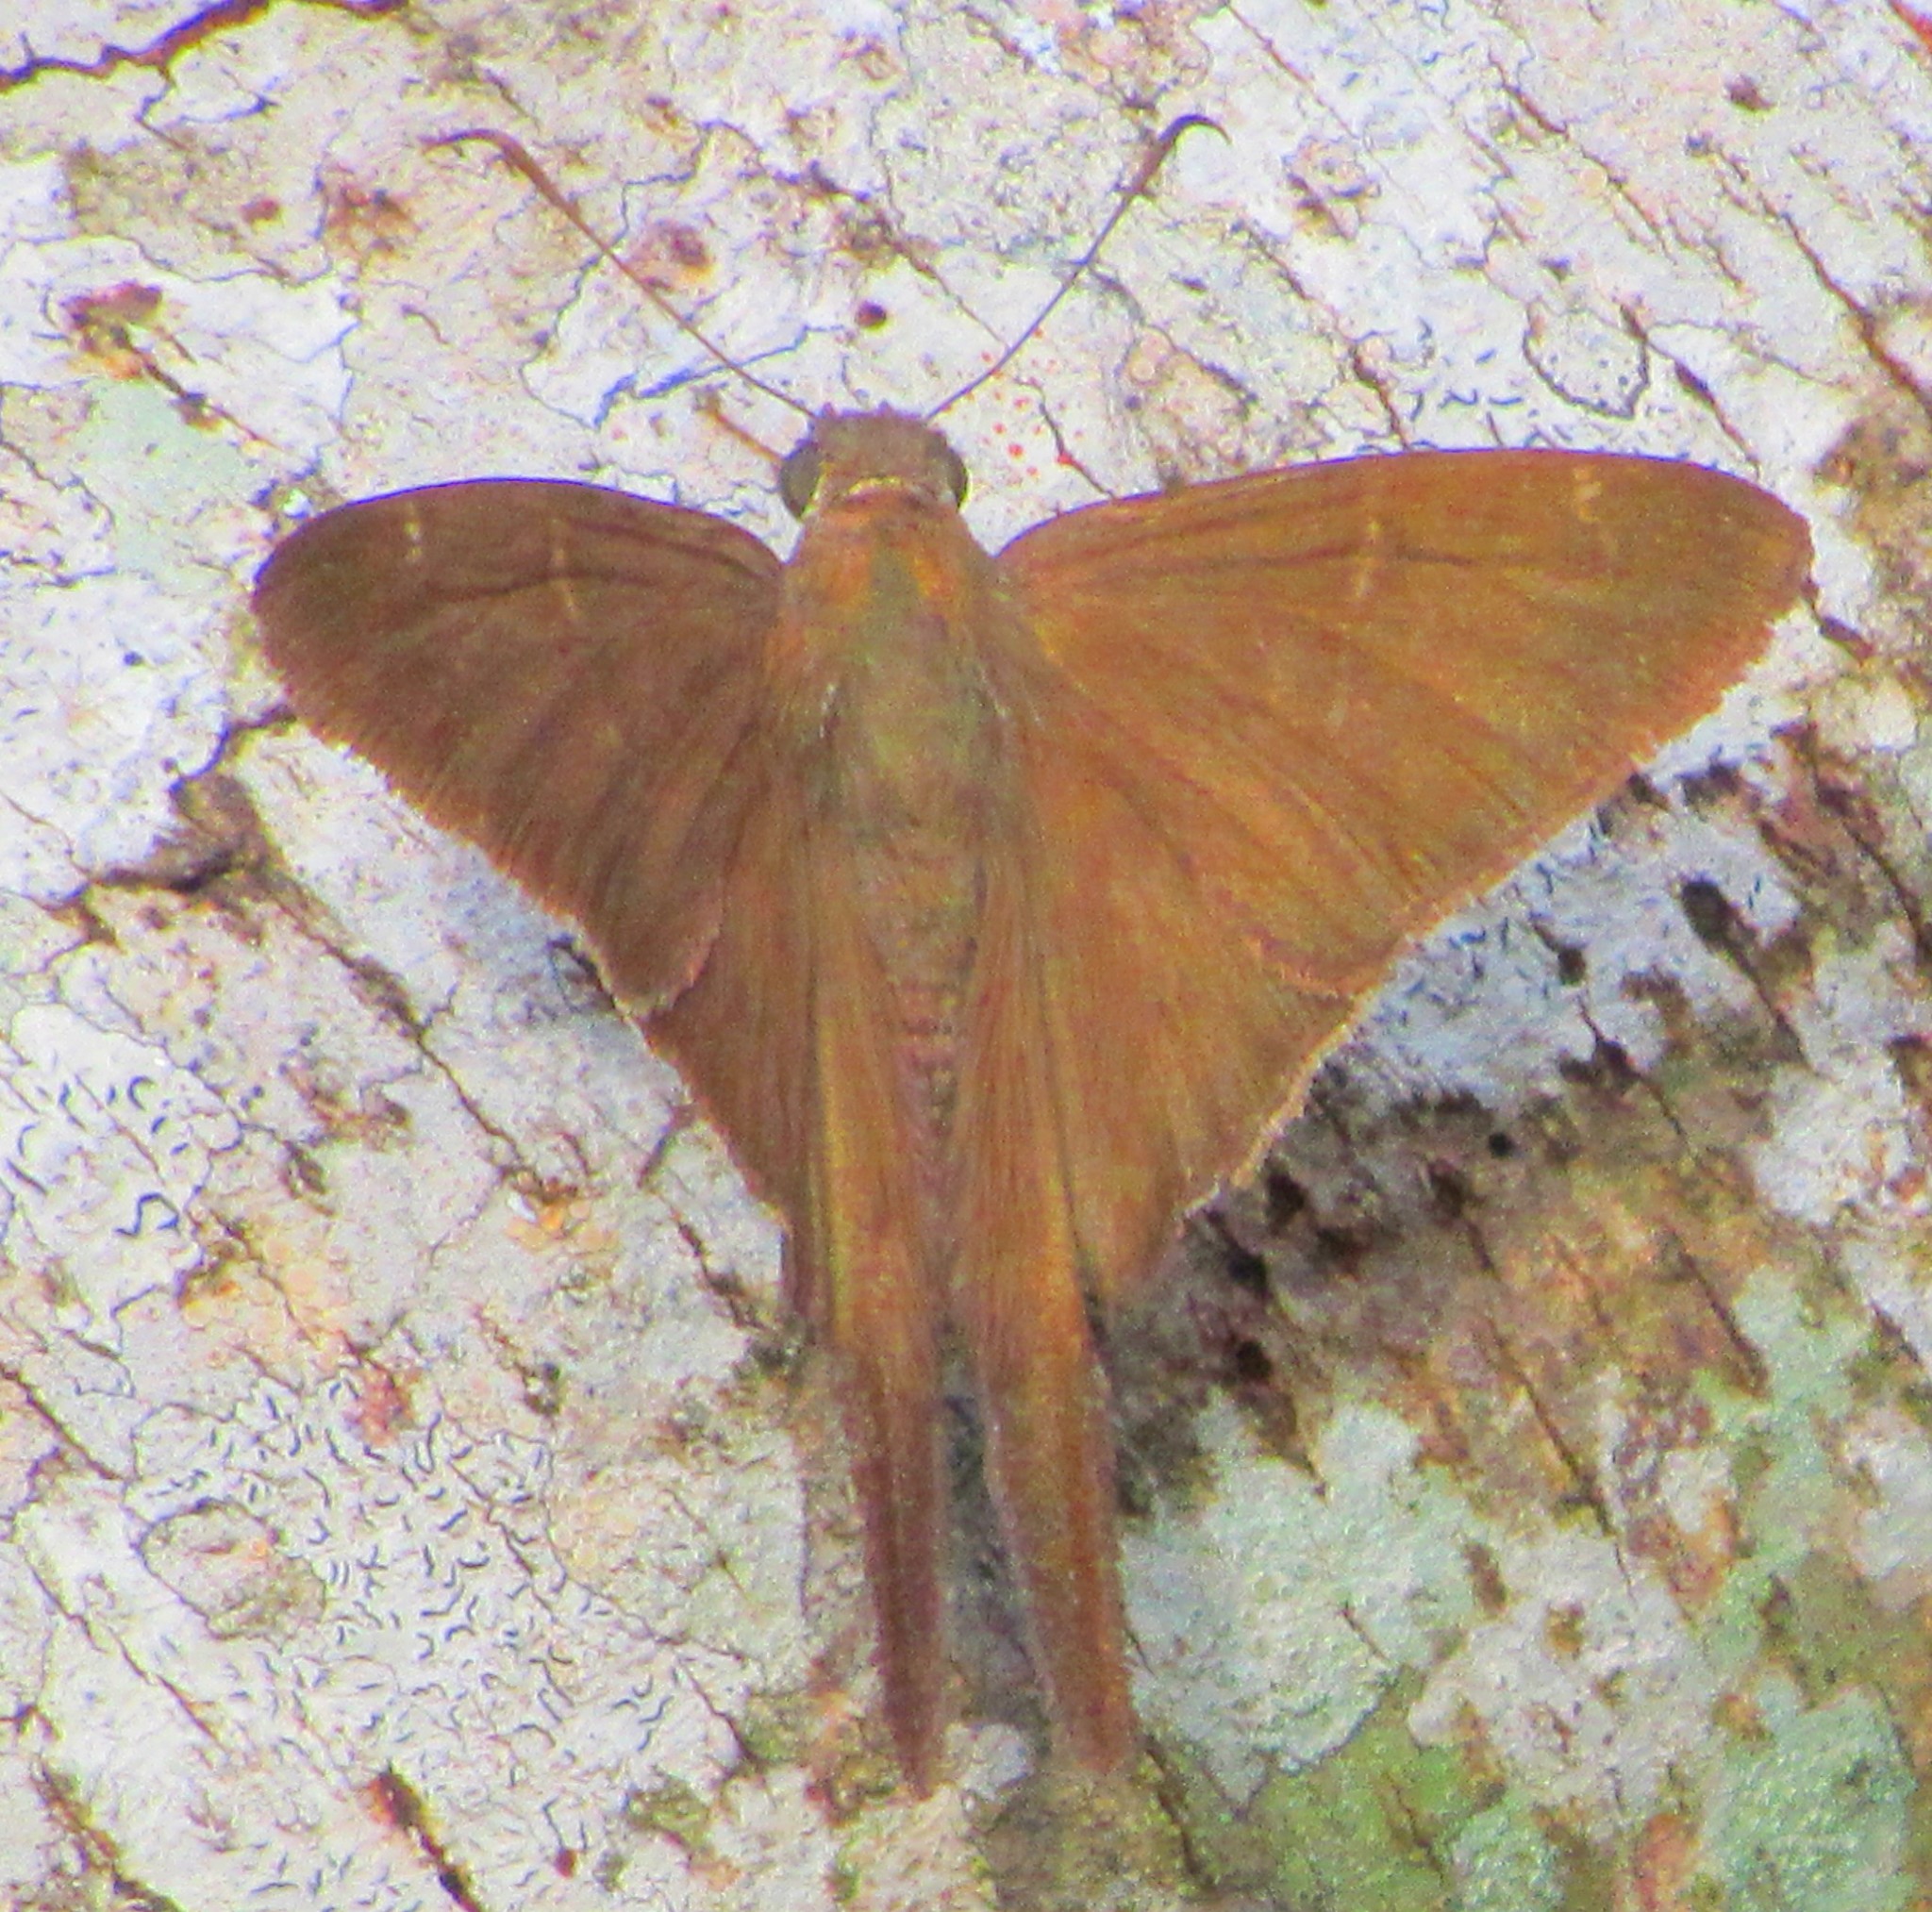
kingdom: Animalia
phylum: Arthropoda
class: Insecta
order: Lepidoptera
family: Hesperiidae
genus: Urbanus
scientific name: Urbanus procne
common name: Brown longtail
